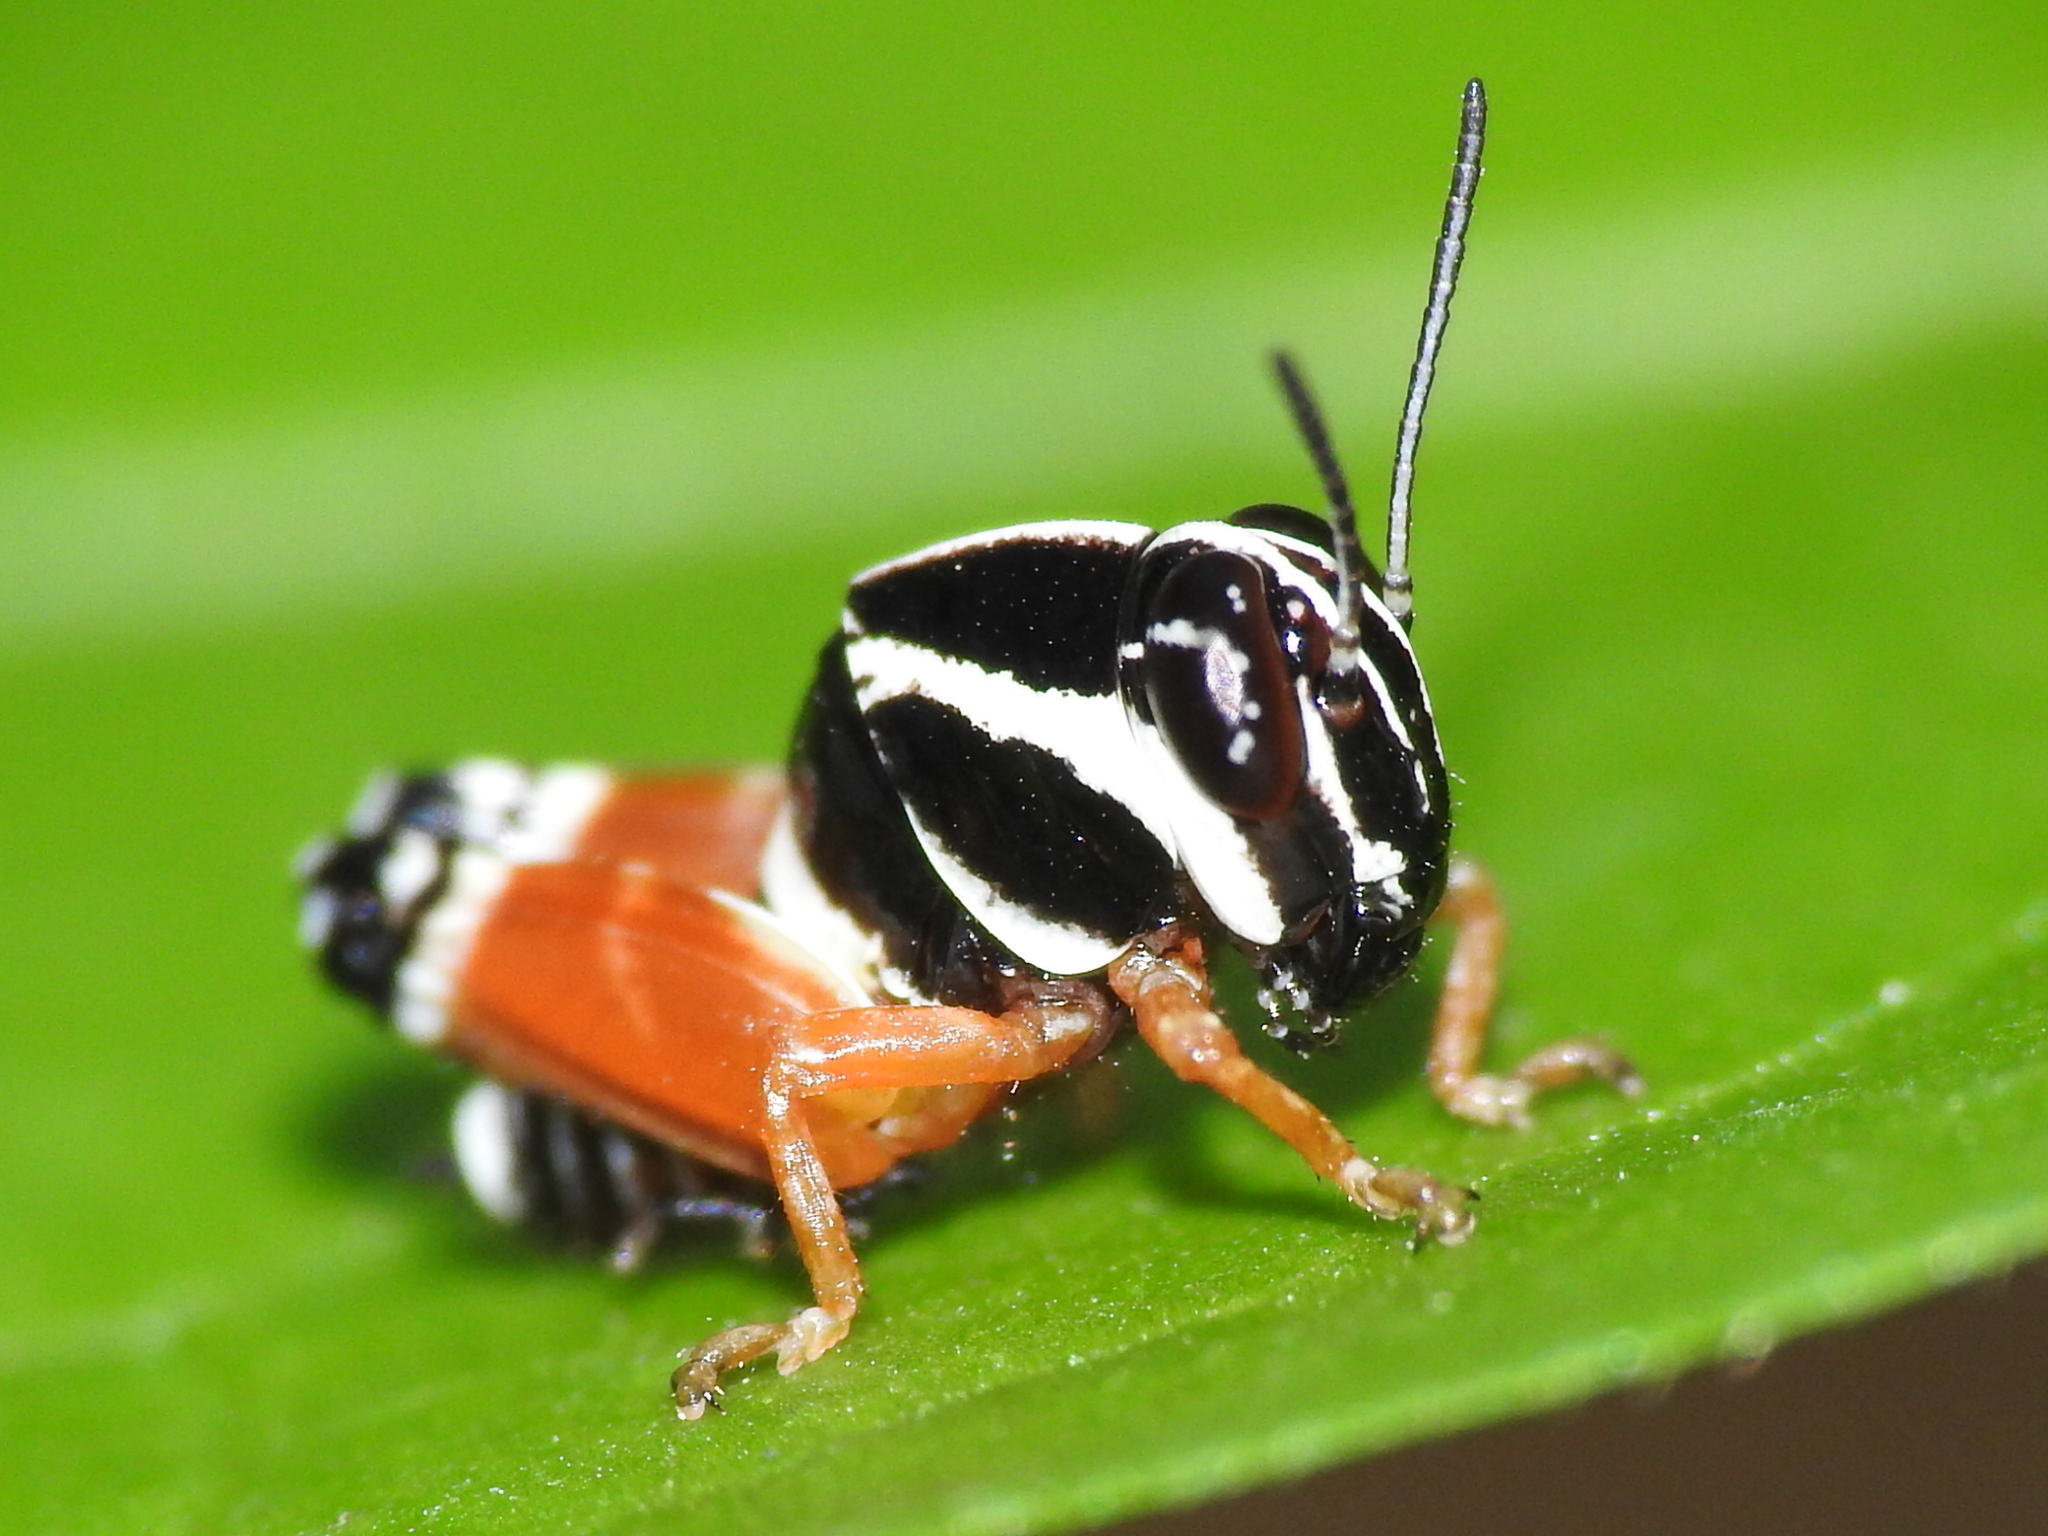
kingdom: Animalia
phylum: Arthropoda
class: Insecta
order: Orthoptera
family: Acrididae
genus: Aidemona
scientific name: Aidemona azteca
